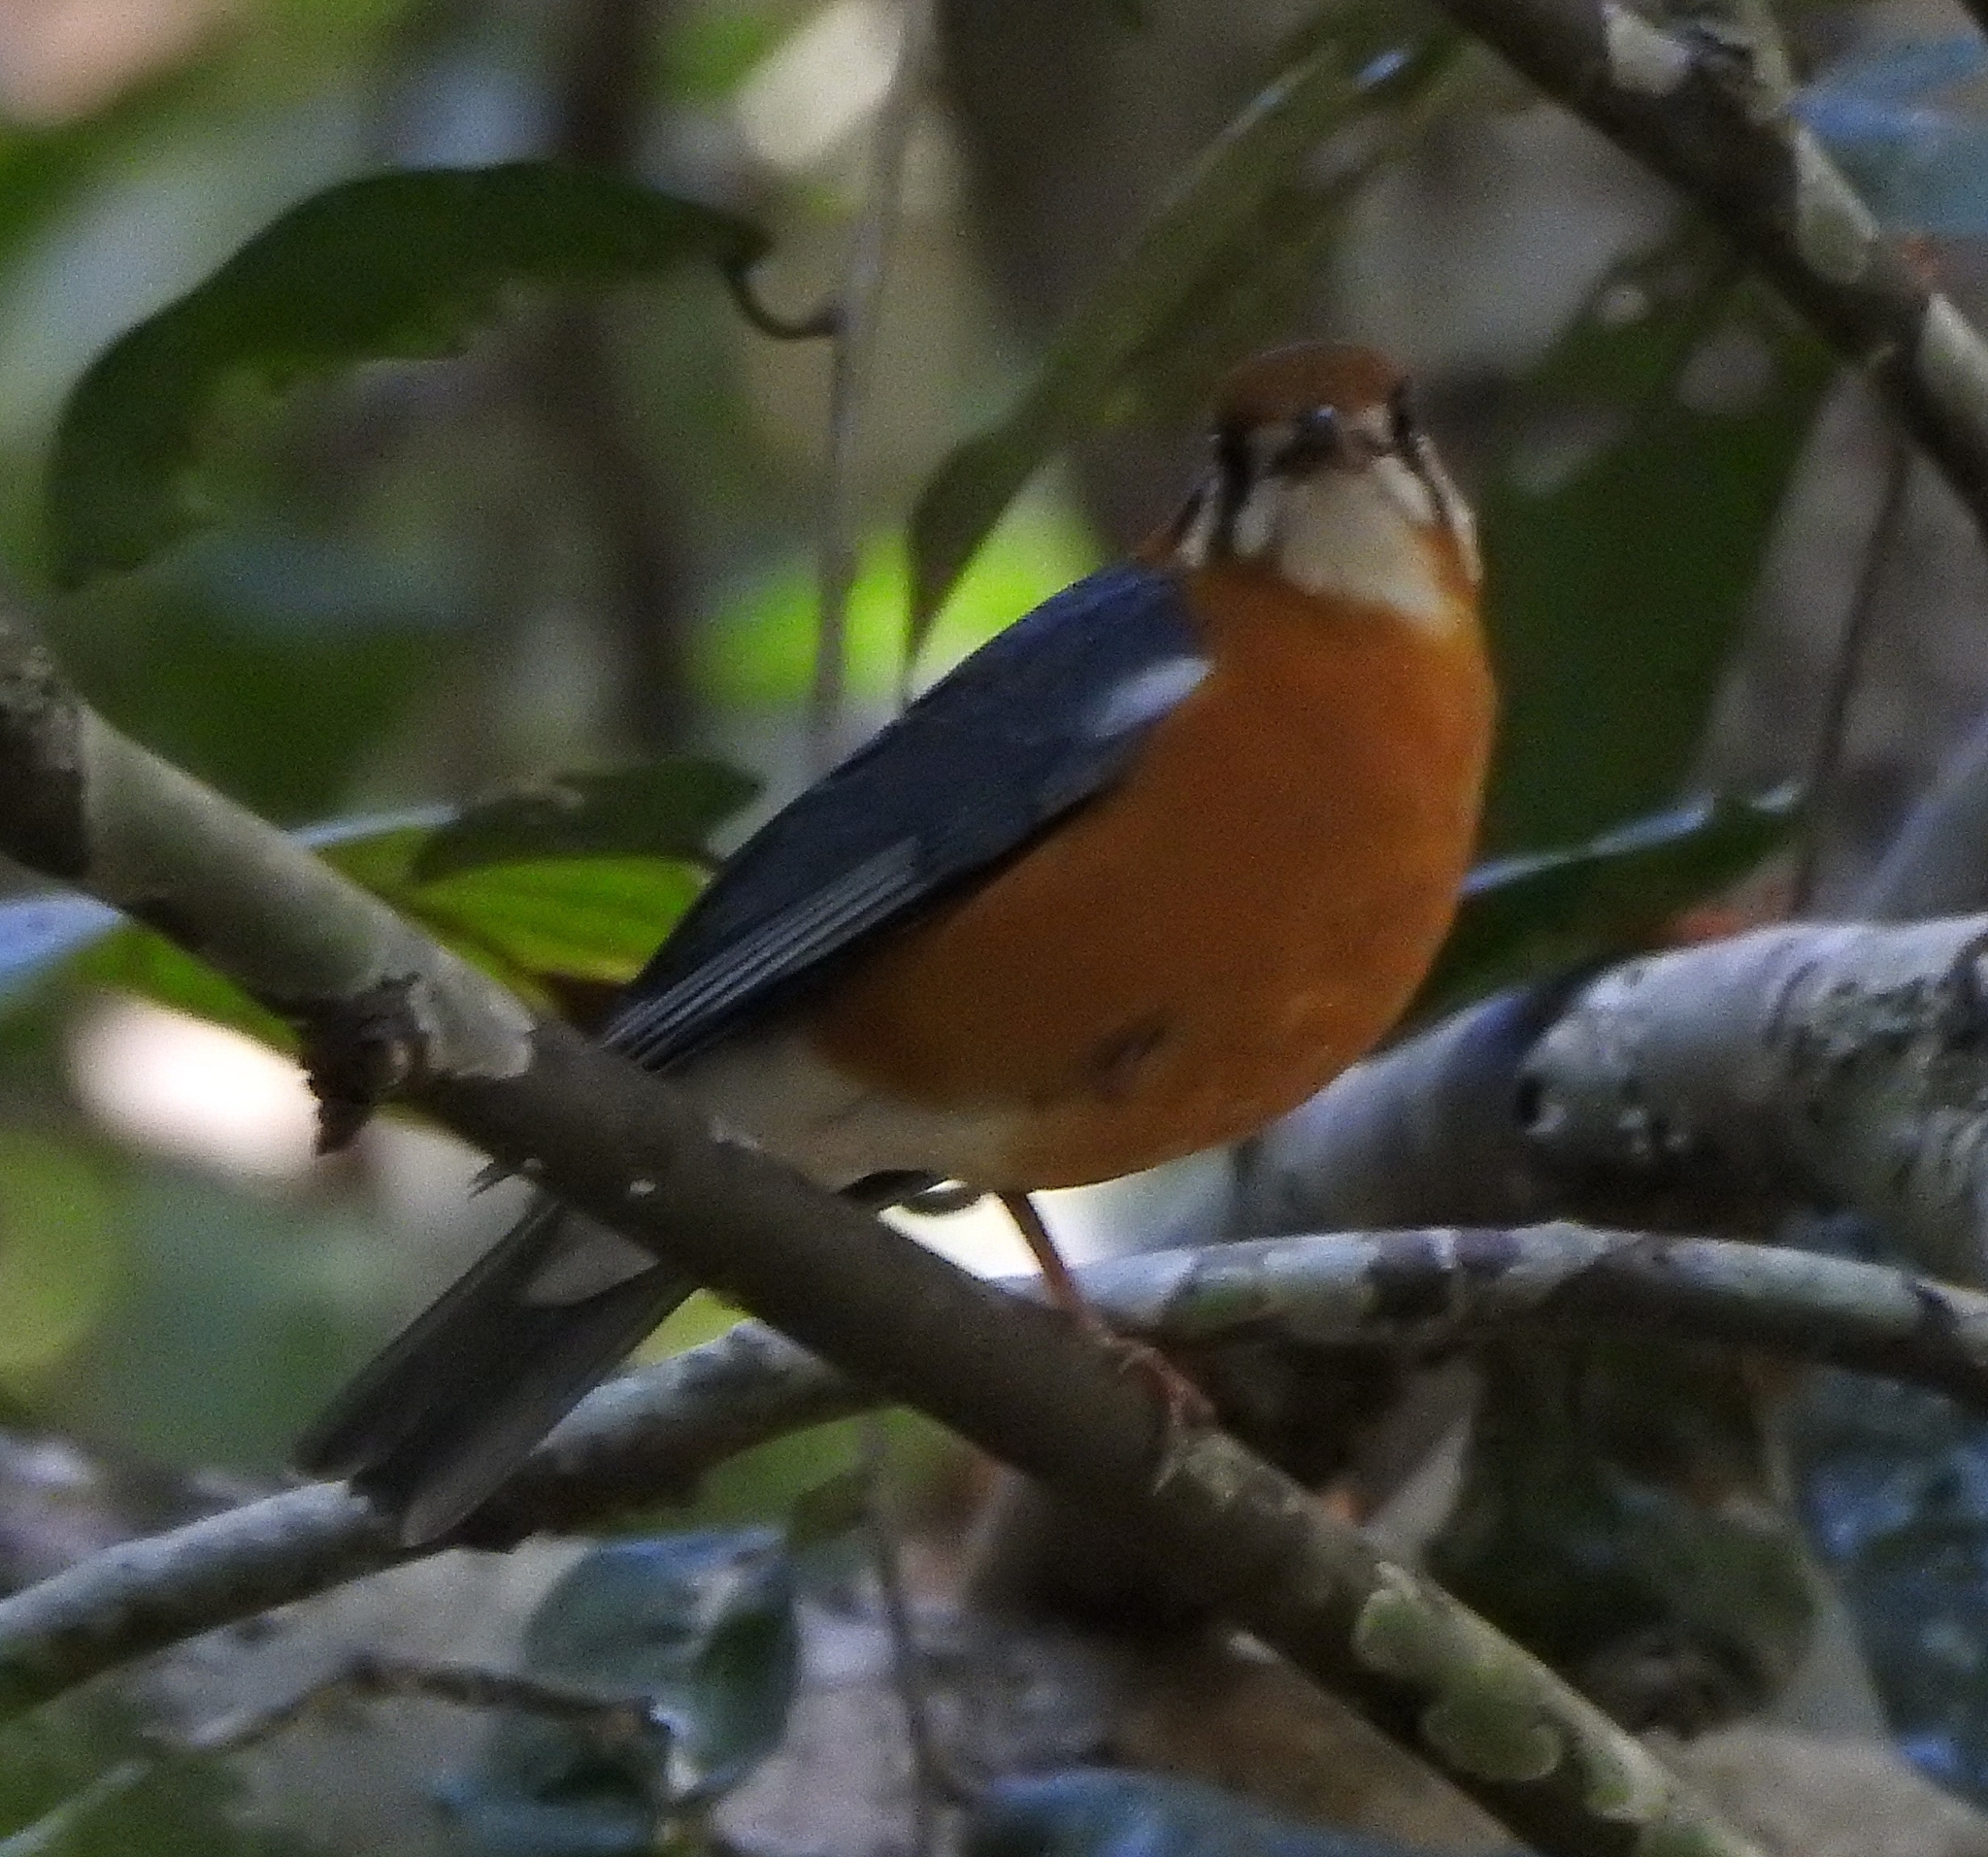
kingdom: Animalia
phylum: Chordata
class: Aves
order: Passeriformes
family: Turdidae
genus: Geokichla
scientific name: Geokichla citrina
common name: Orange-headed thrush
